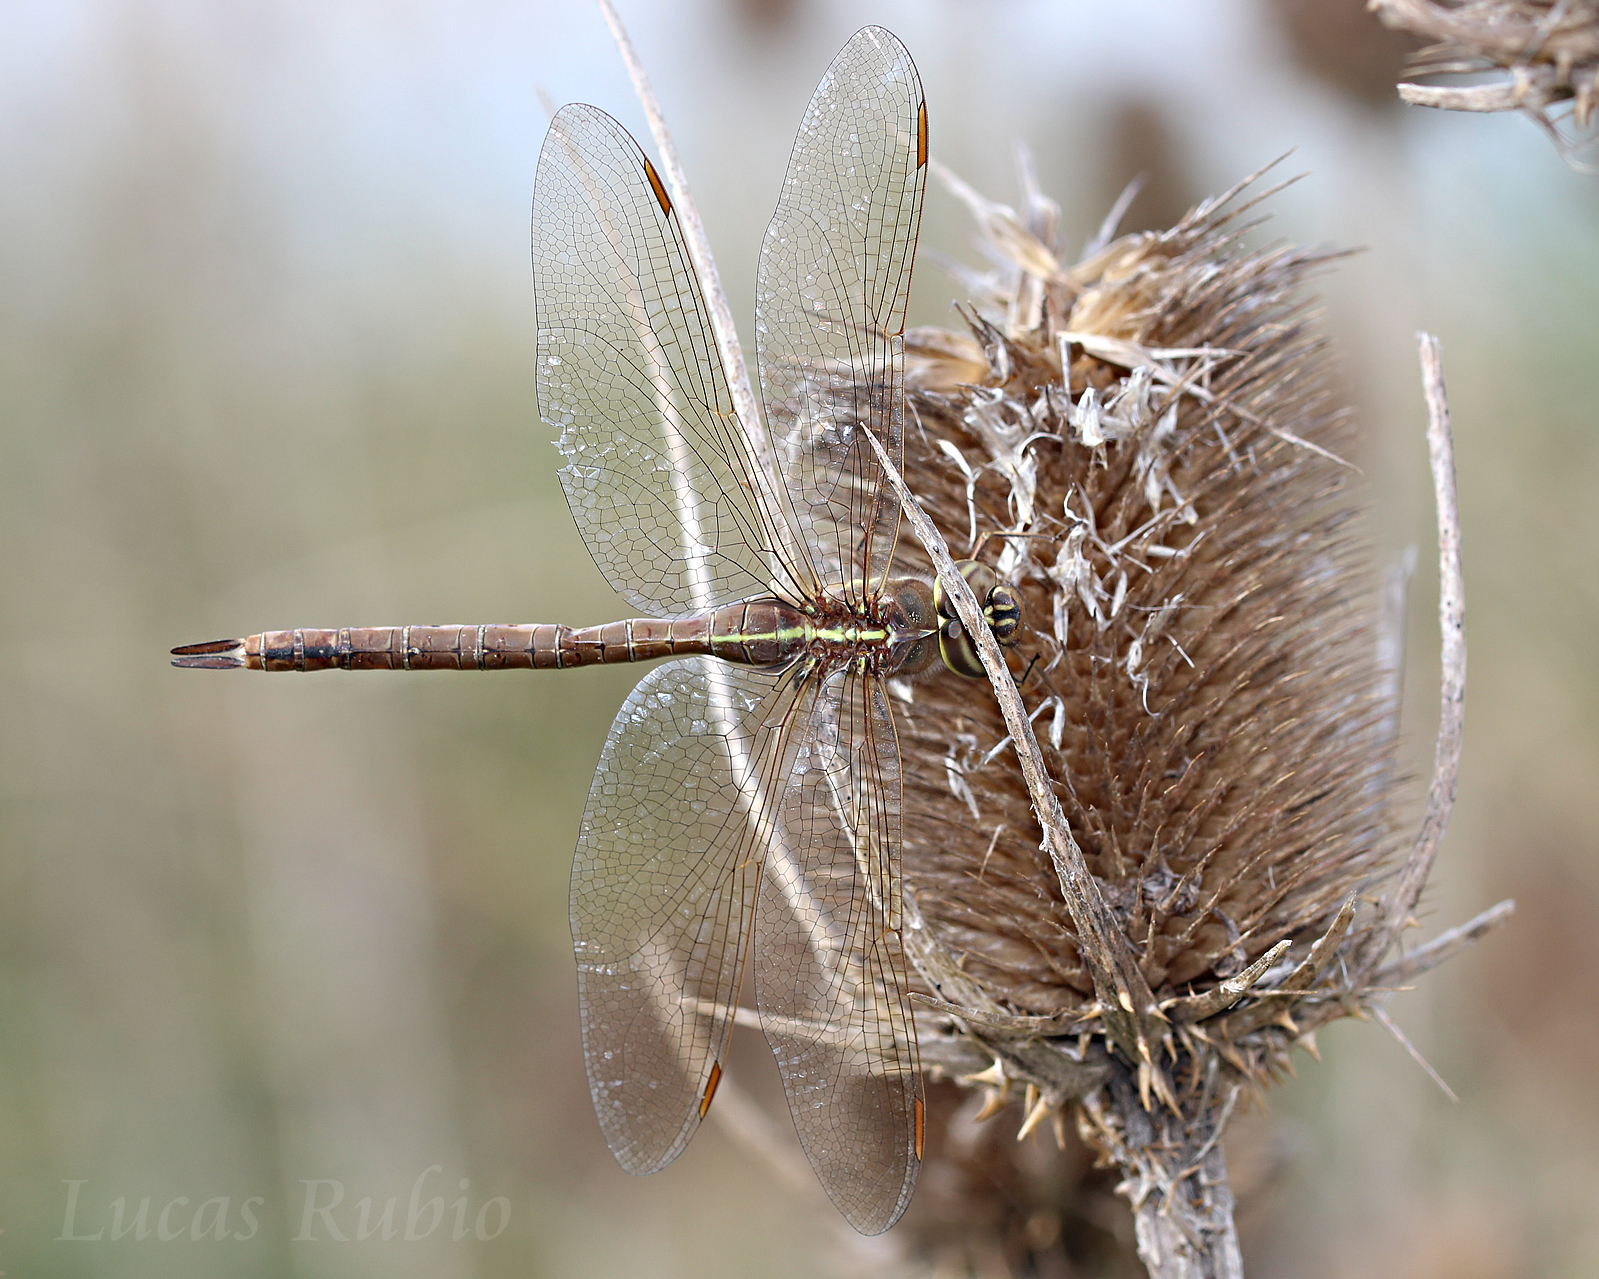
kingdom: Animalia
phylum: Arthropoda
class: Insecta
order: Odonata
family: Aeshnidae
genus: Rhionaeschna
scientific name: Rhionaeschna bonariensis
